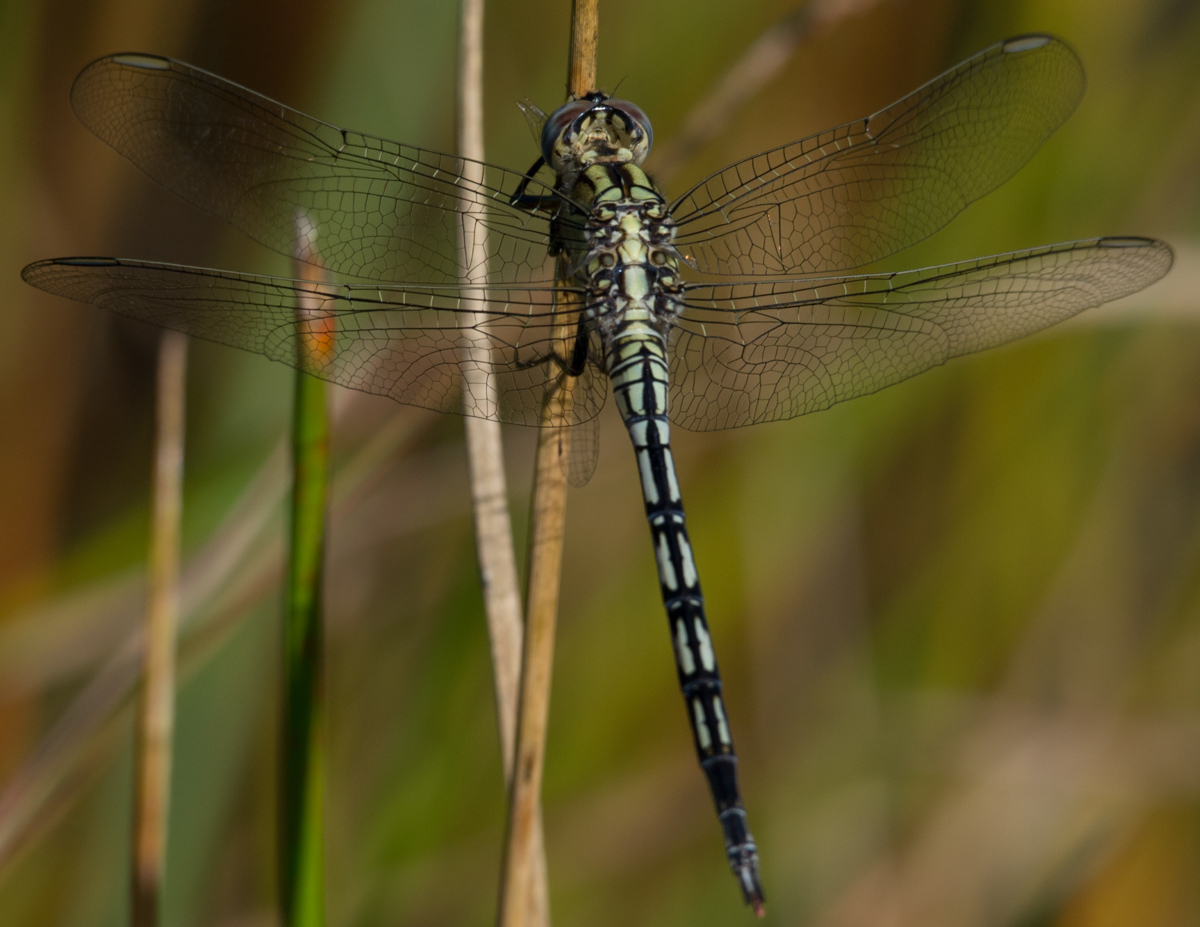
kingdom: Animalia
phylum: Arthropoda
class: Insecta
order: Odonata
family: Libellulidae
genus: Orthetrum
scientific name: Orthetrum trinacria
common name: Long skimmer
